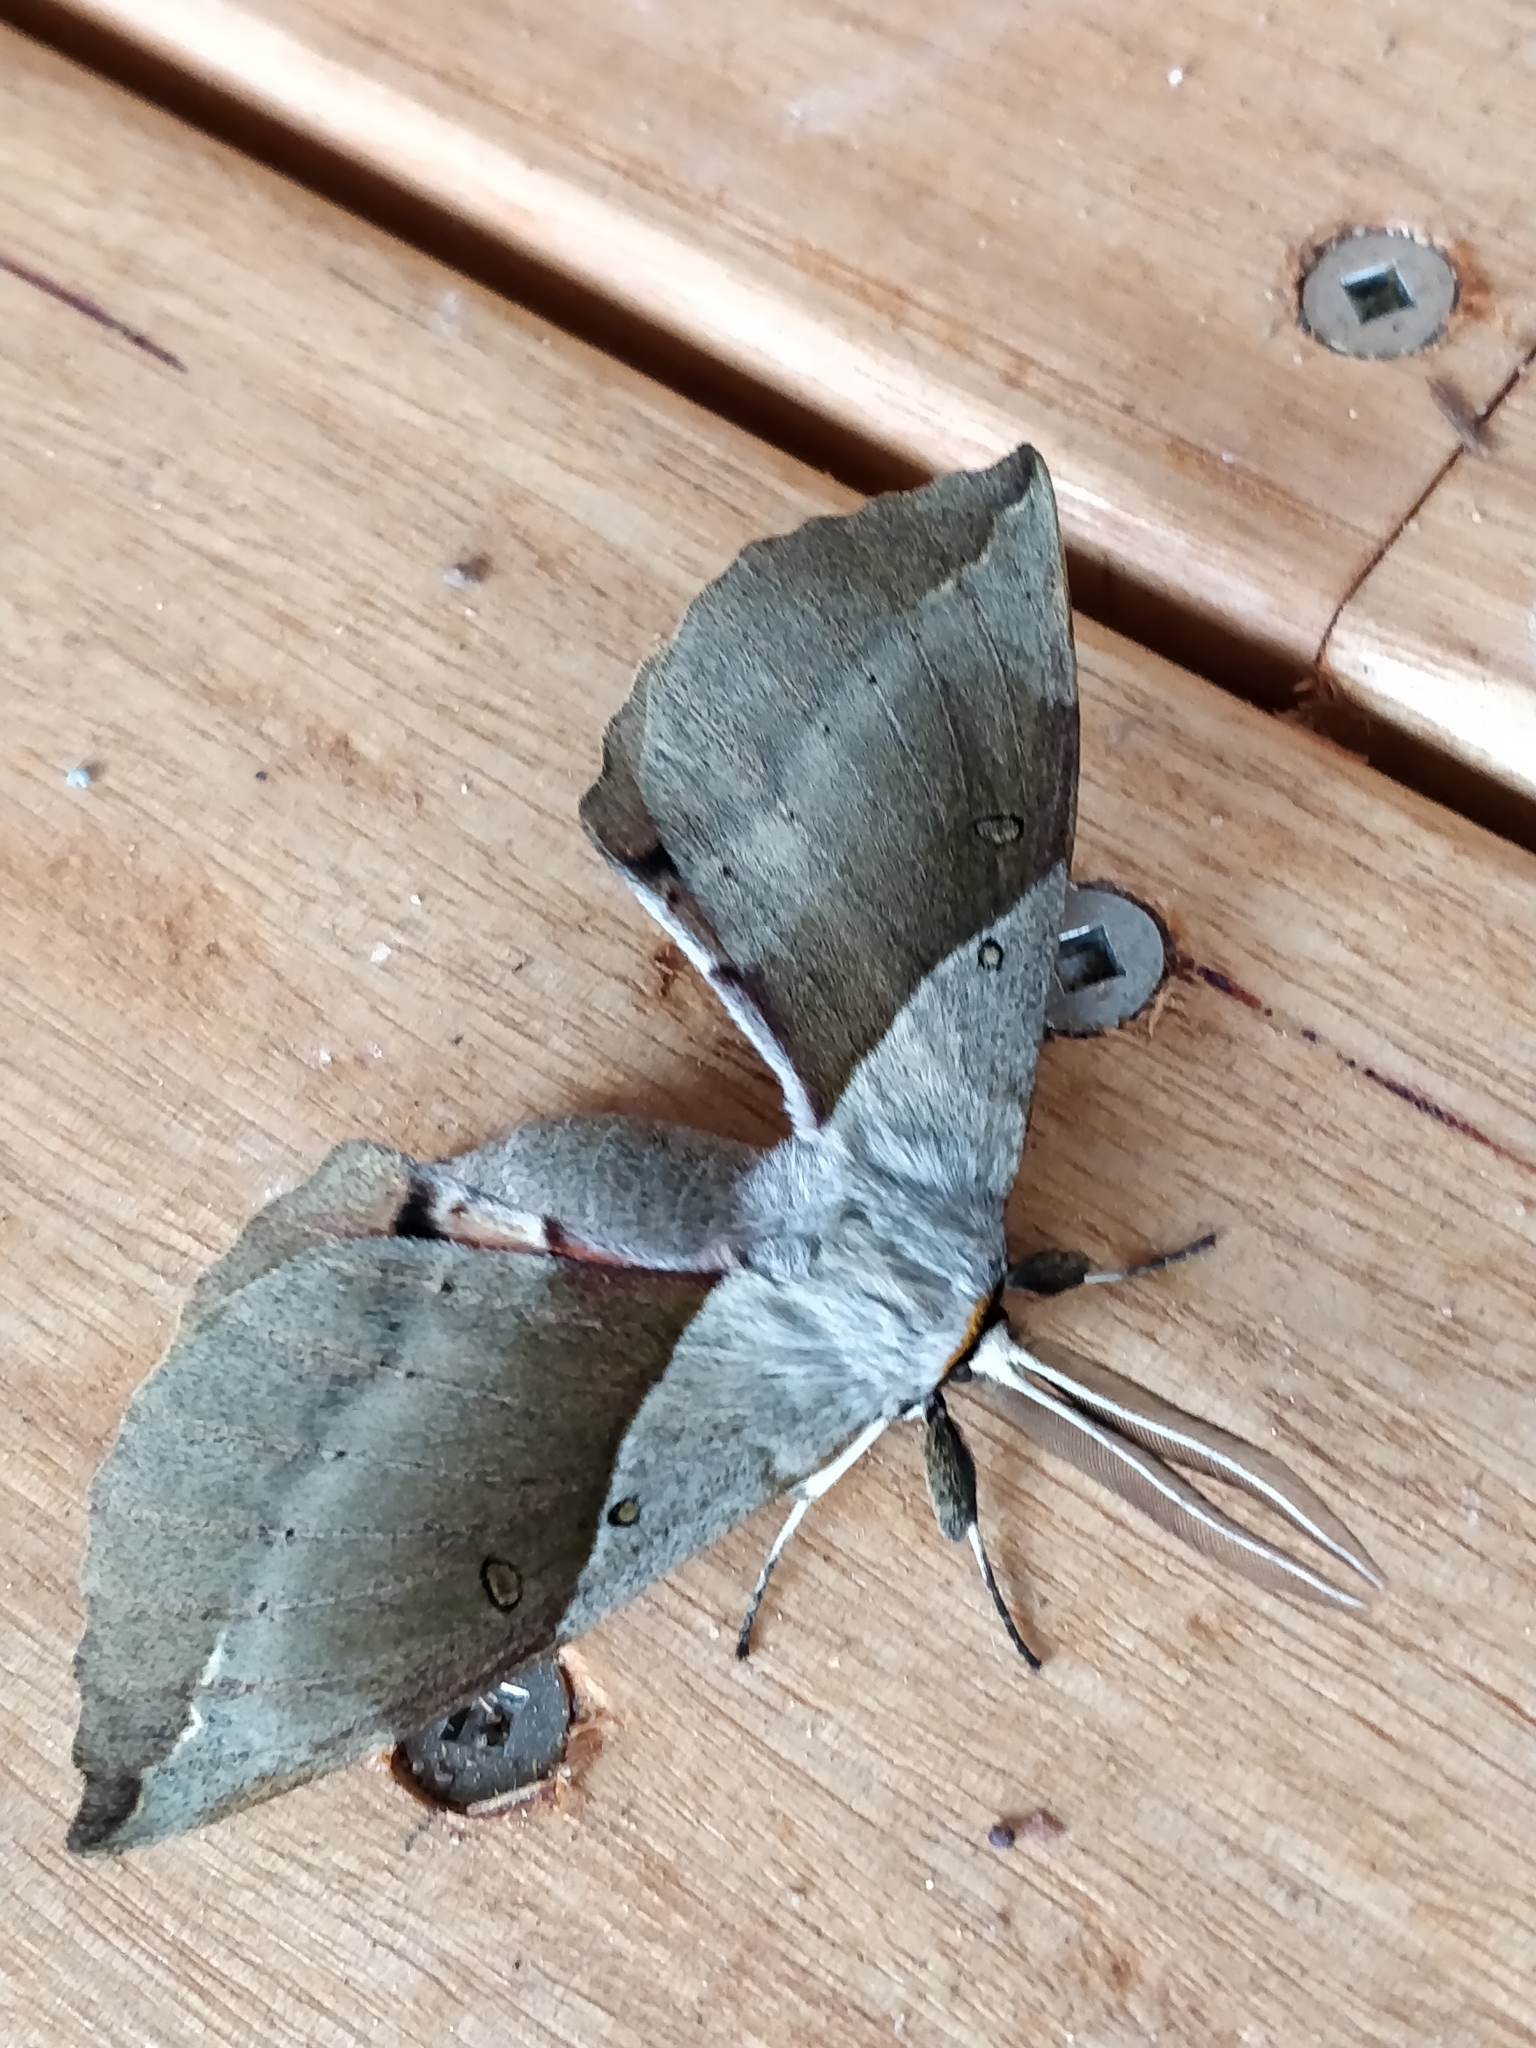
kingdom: Animalia
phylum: Arthropoda
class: Insecta
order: Lepidoptera
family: Anthelidae
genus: Chelepteryx
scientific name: Chelepteryx chalepteryx
